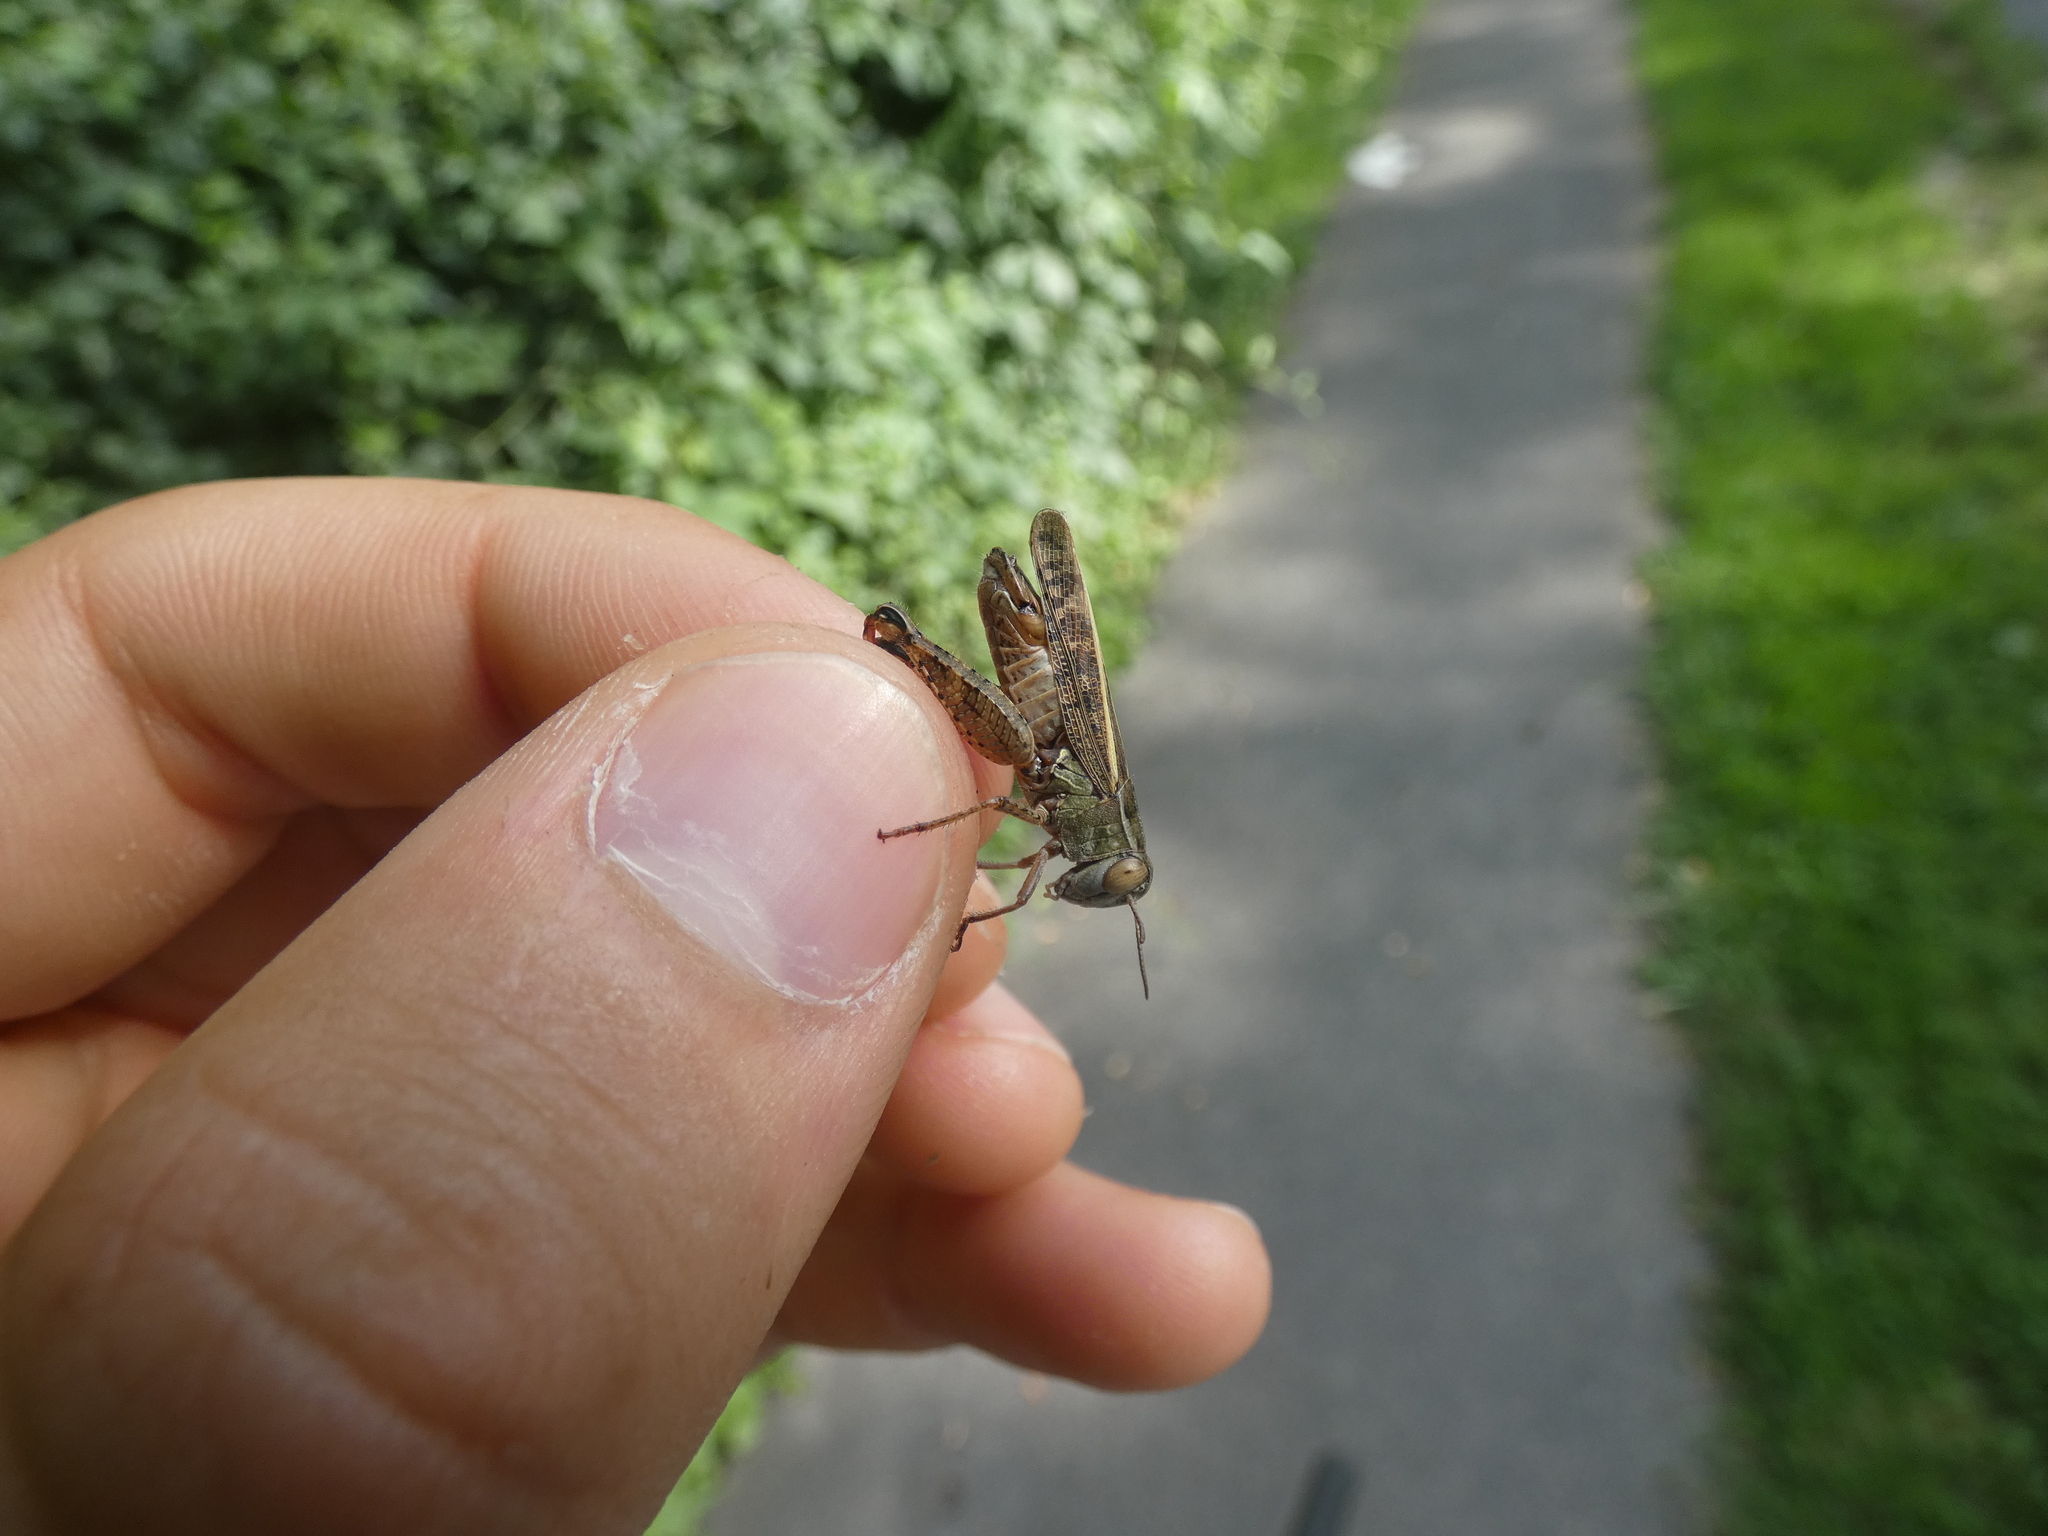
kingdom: Animalia
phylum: Arthropoda
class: Insecta
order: Orthoptera
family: Acrididae
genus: Calliptamus
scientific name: Calliptamus italicus
